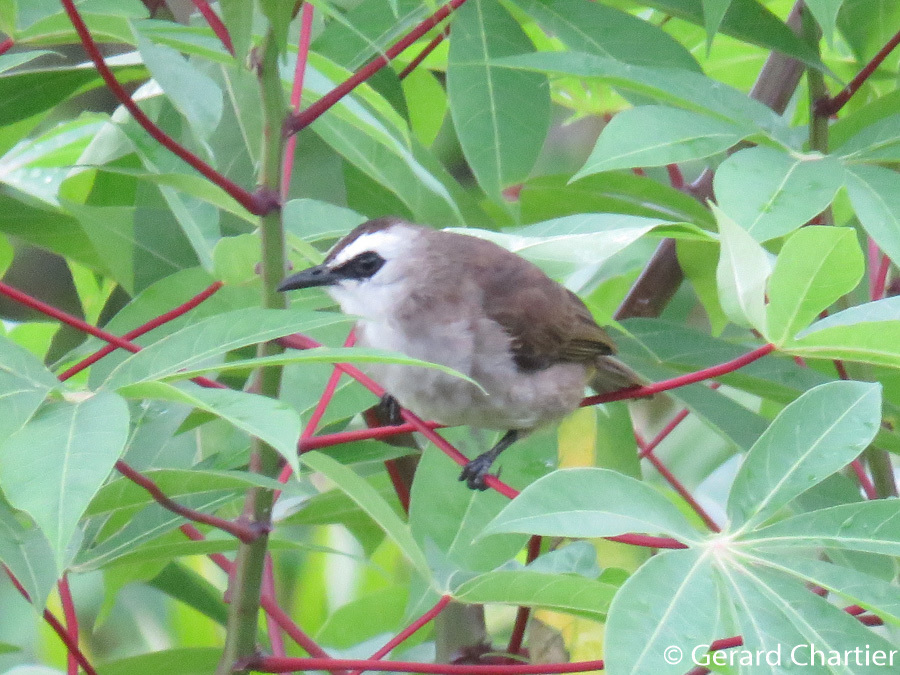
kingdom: Animalia
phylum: Chordata
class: Aves
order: Passeriformes
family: Pycnonotidae
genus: Pycnonotus
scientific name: Pycnonotus goiavier
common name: Yellow-vented bulbul
